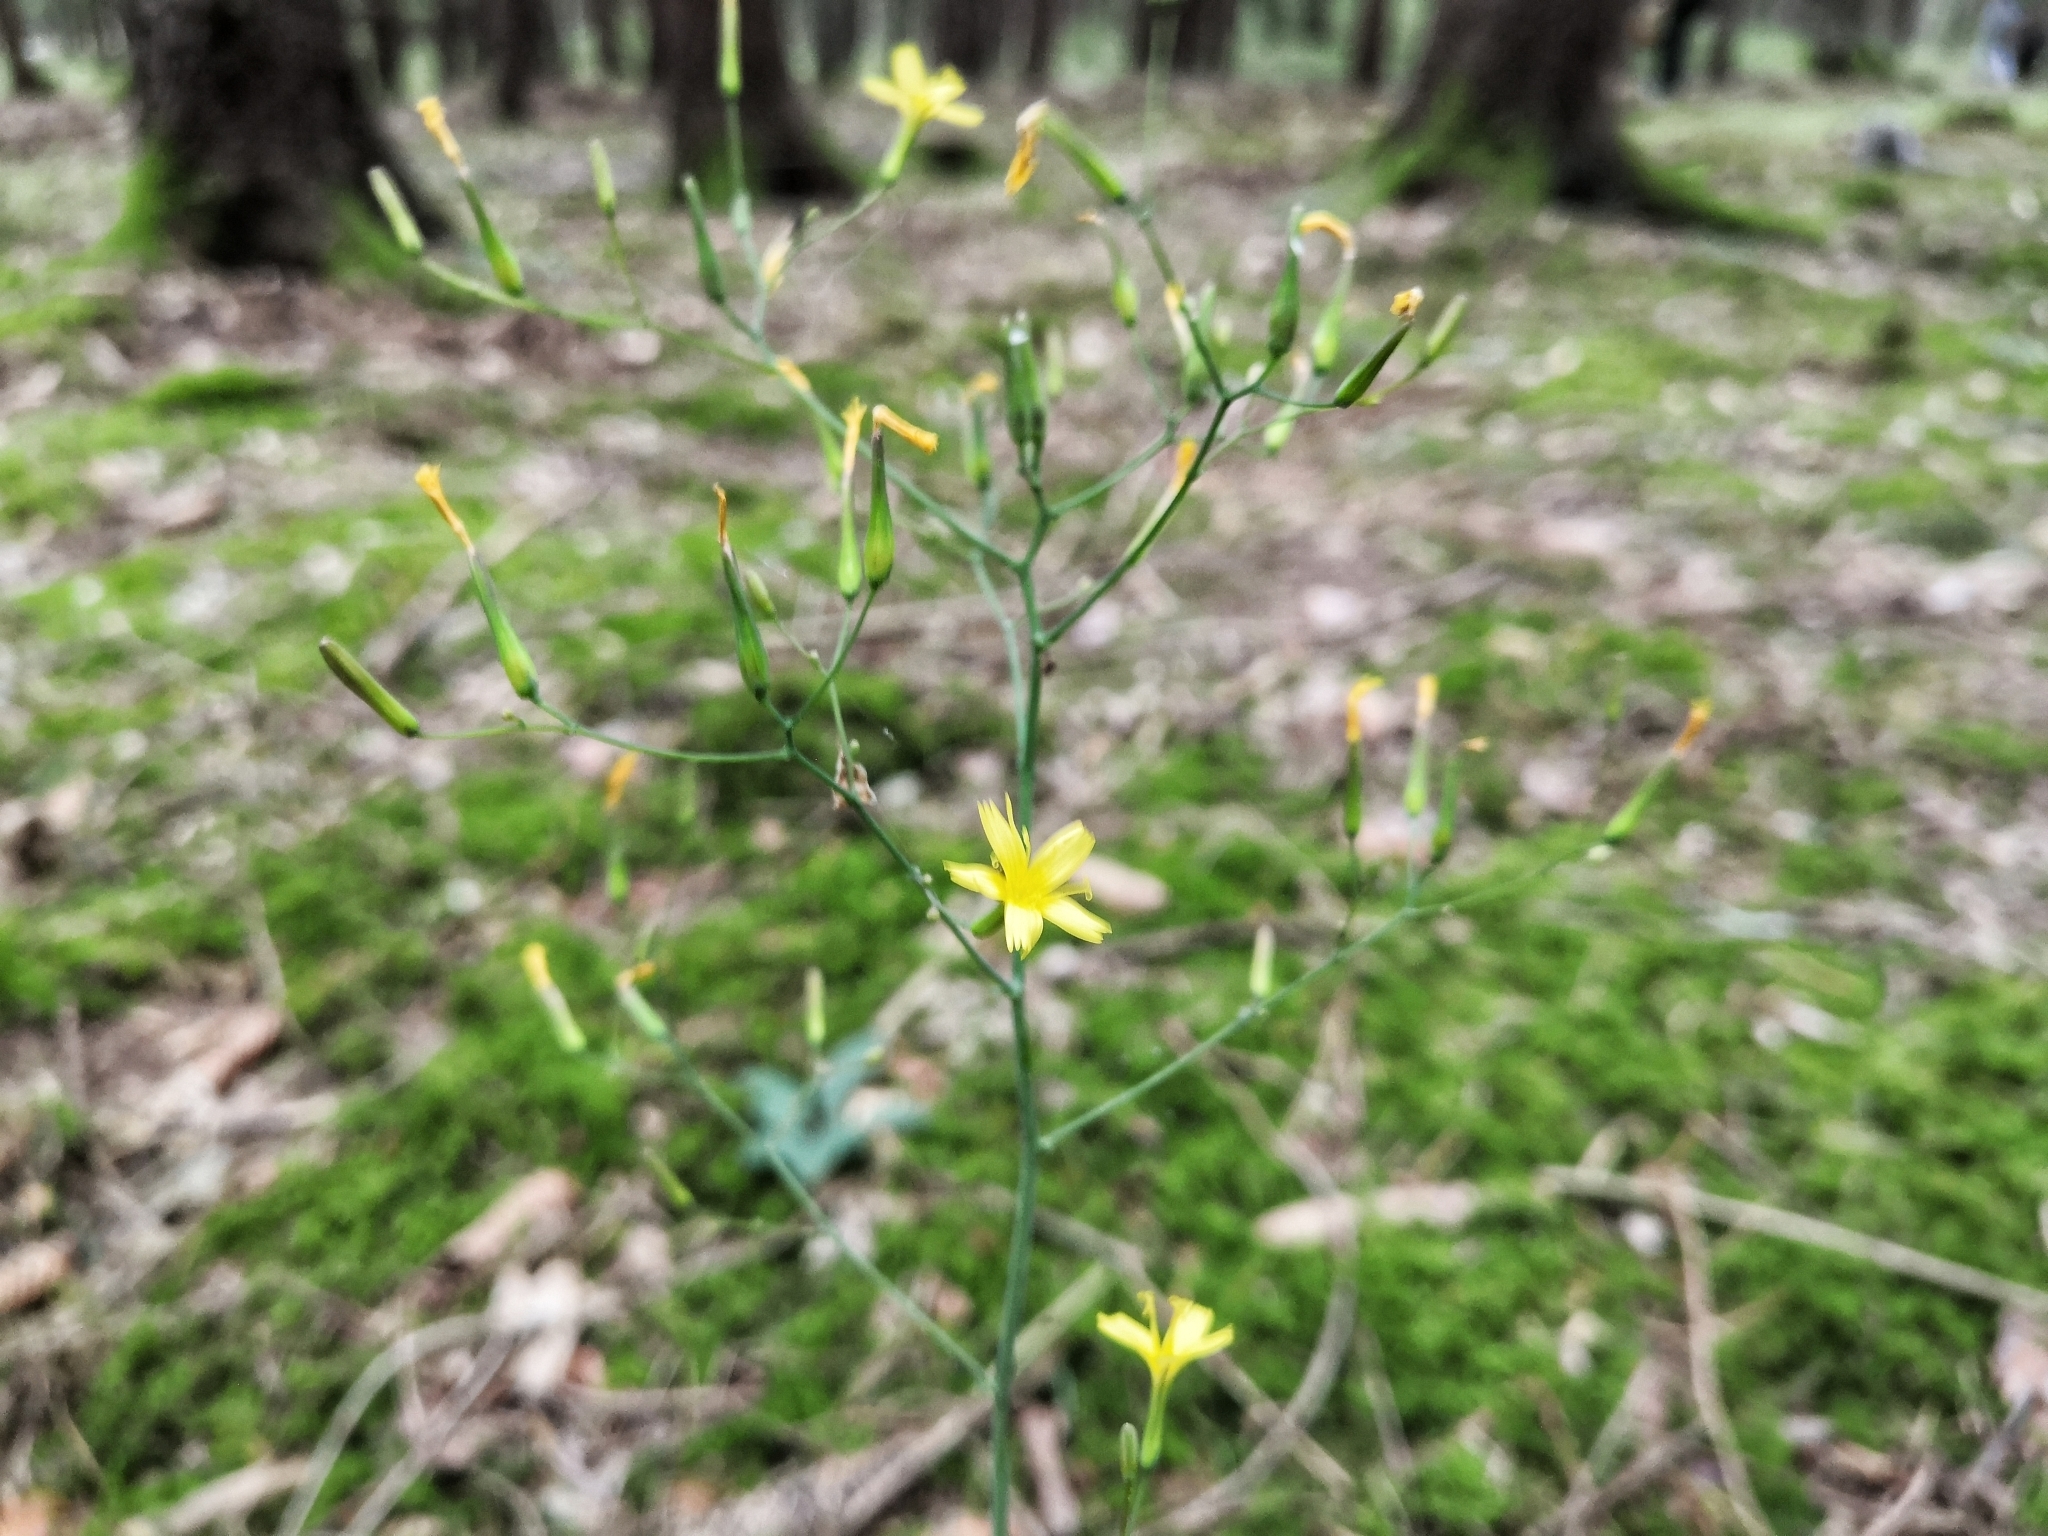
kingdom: Plantae
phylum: Tracheophyta
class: Magnoliopsida
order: Asterales
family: Asteraceae
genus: Mycelis
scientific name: Mycelis muralis
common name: Wall lettuce
